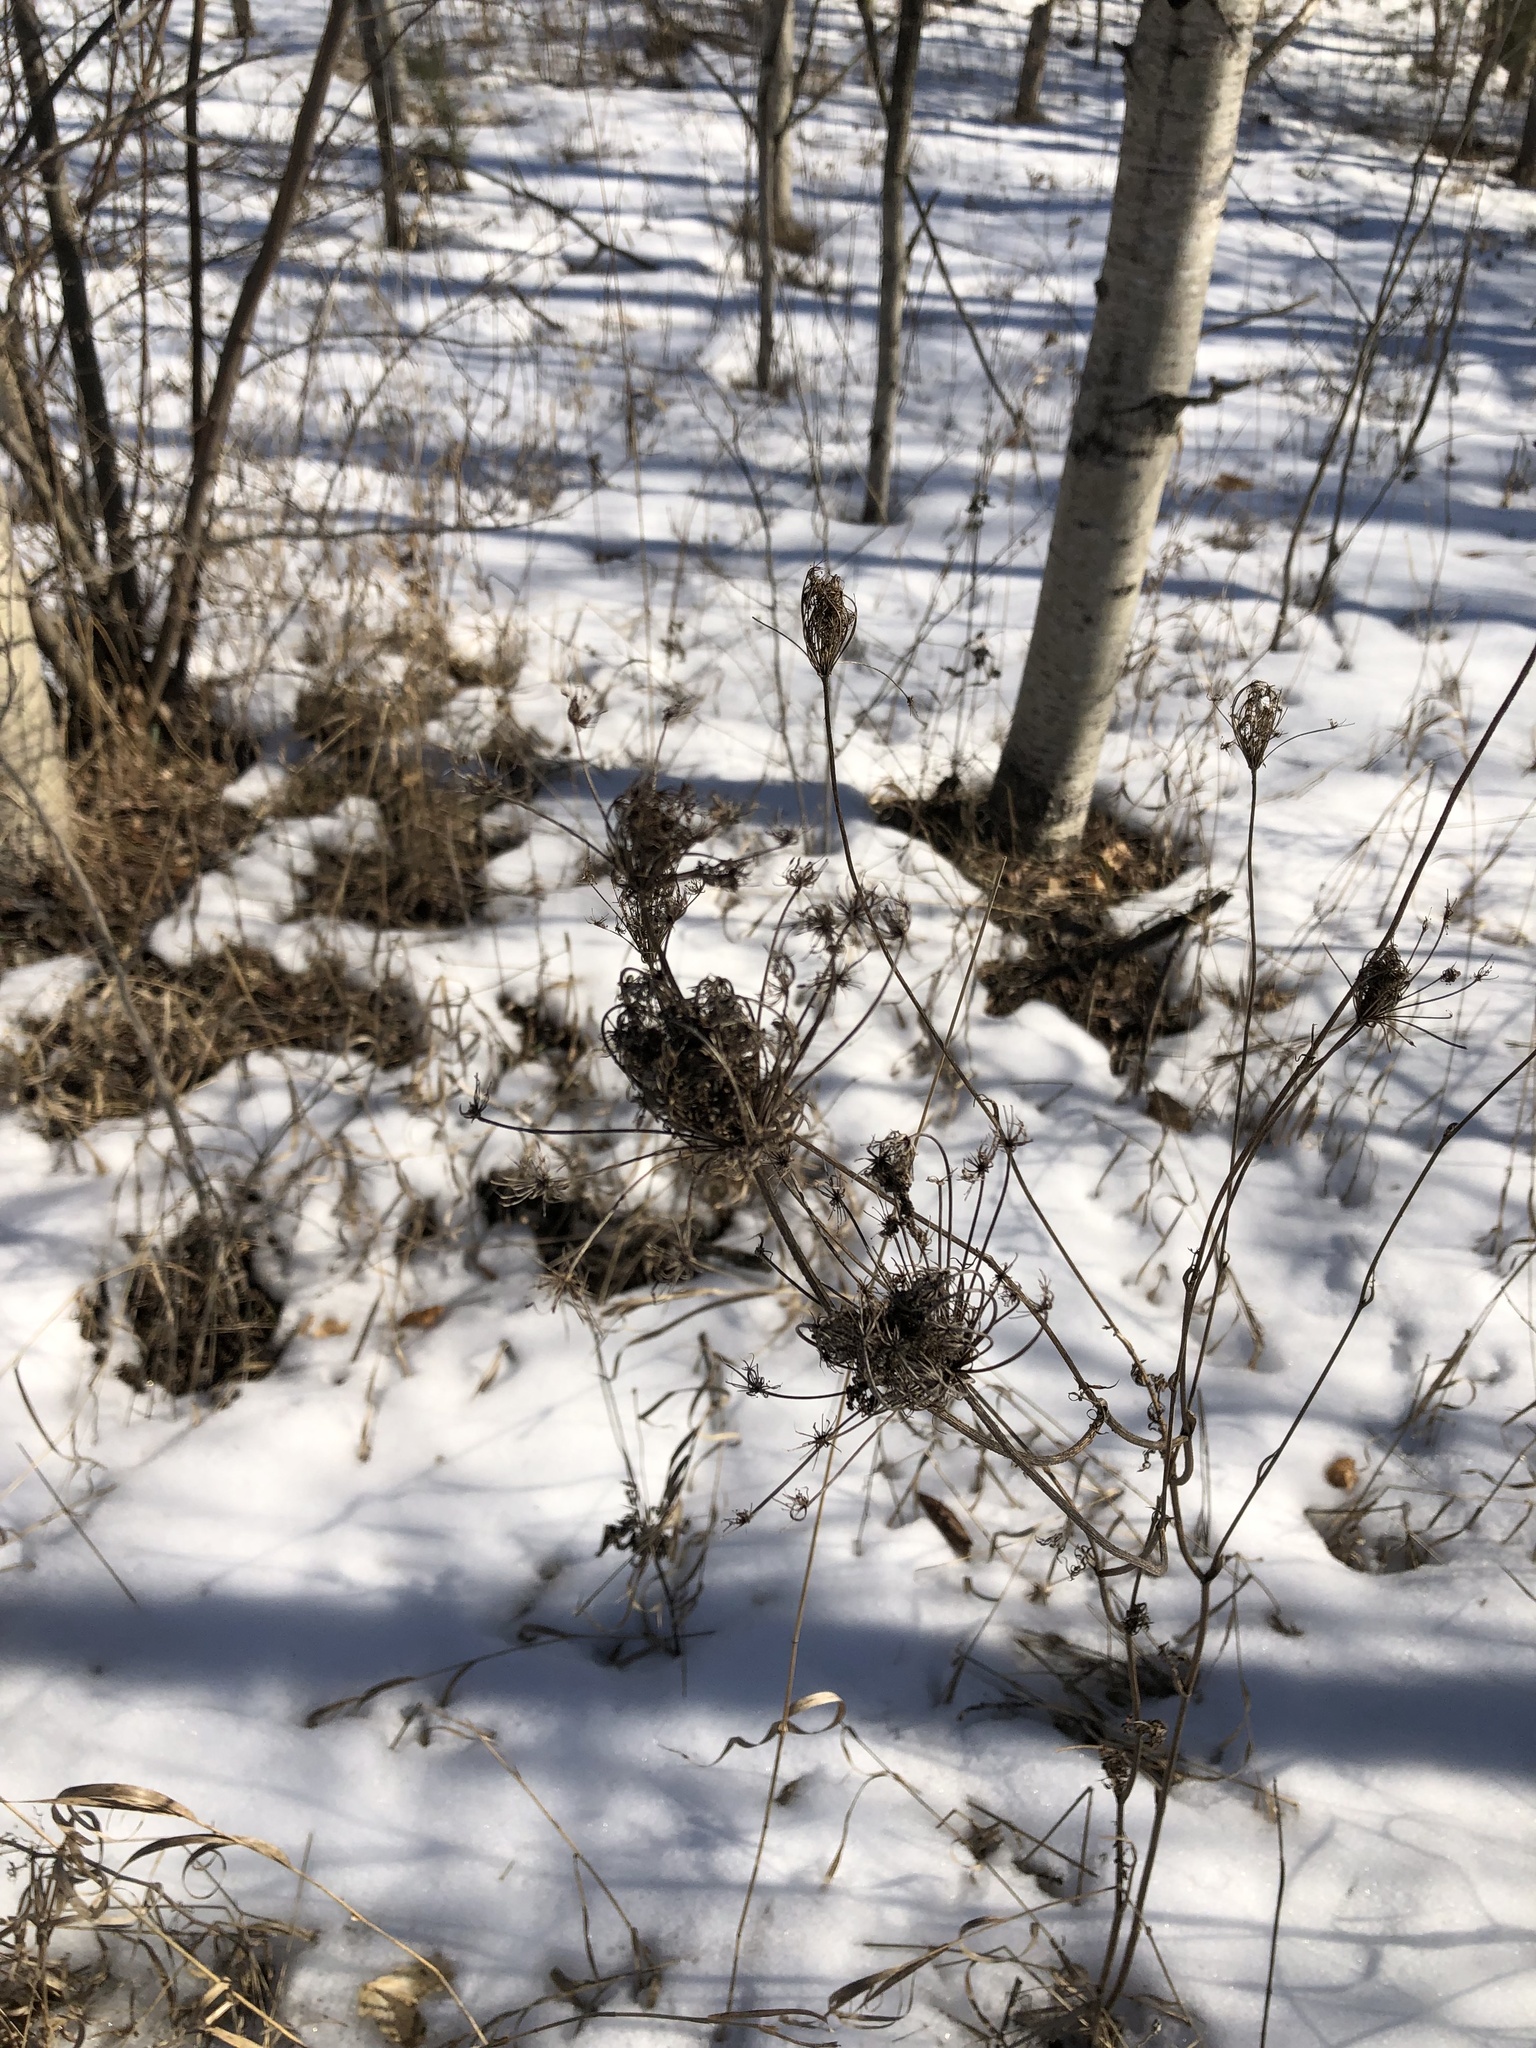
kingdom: Plantae
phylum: Tracheophyta
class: Magnoliopsida
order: Apiales
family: Apiaceae
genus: Daucus
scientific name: Daucus carota
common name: Wild carrot
